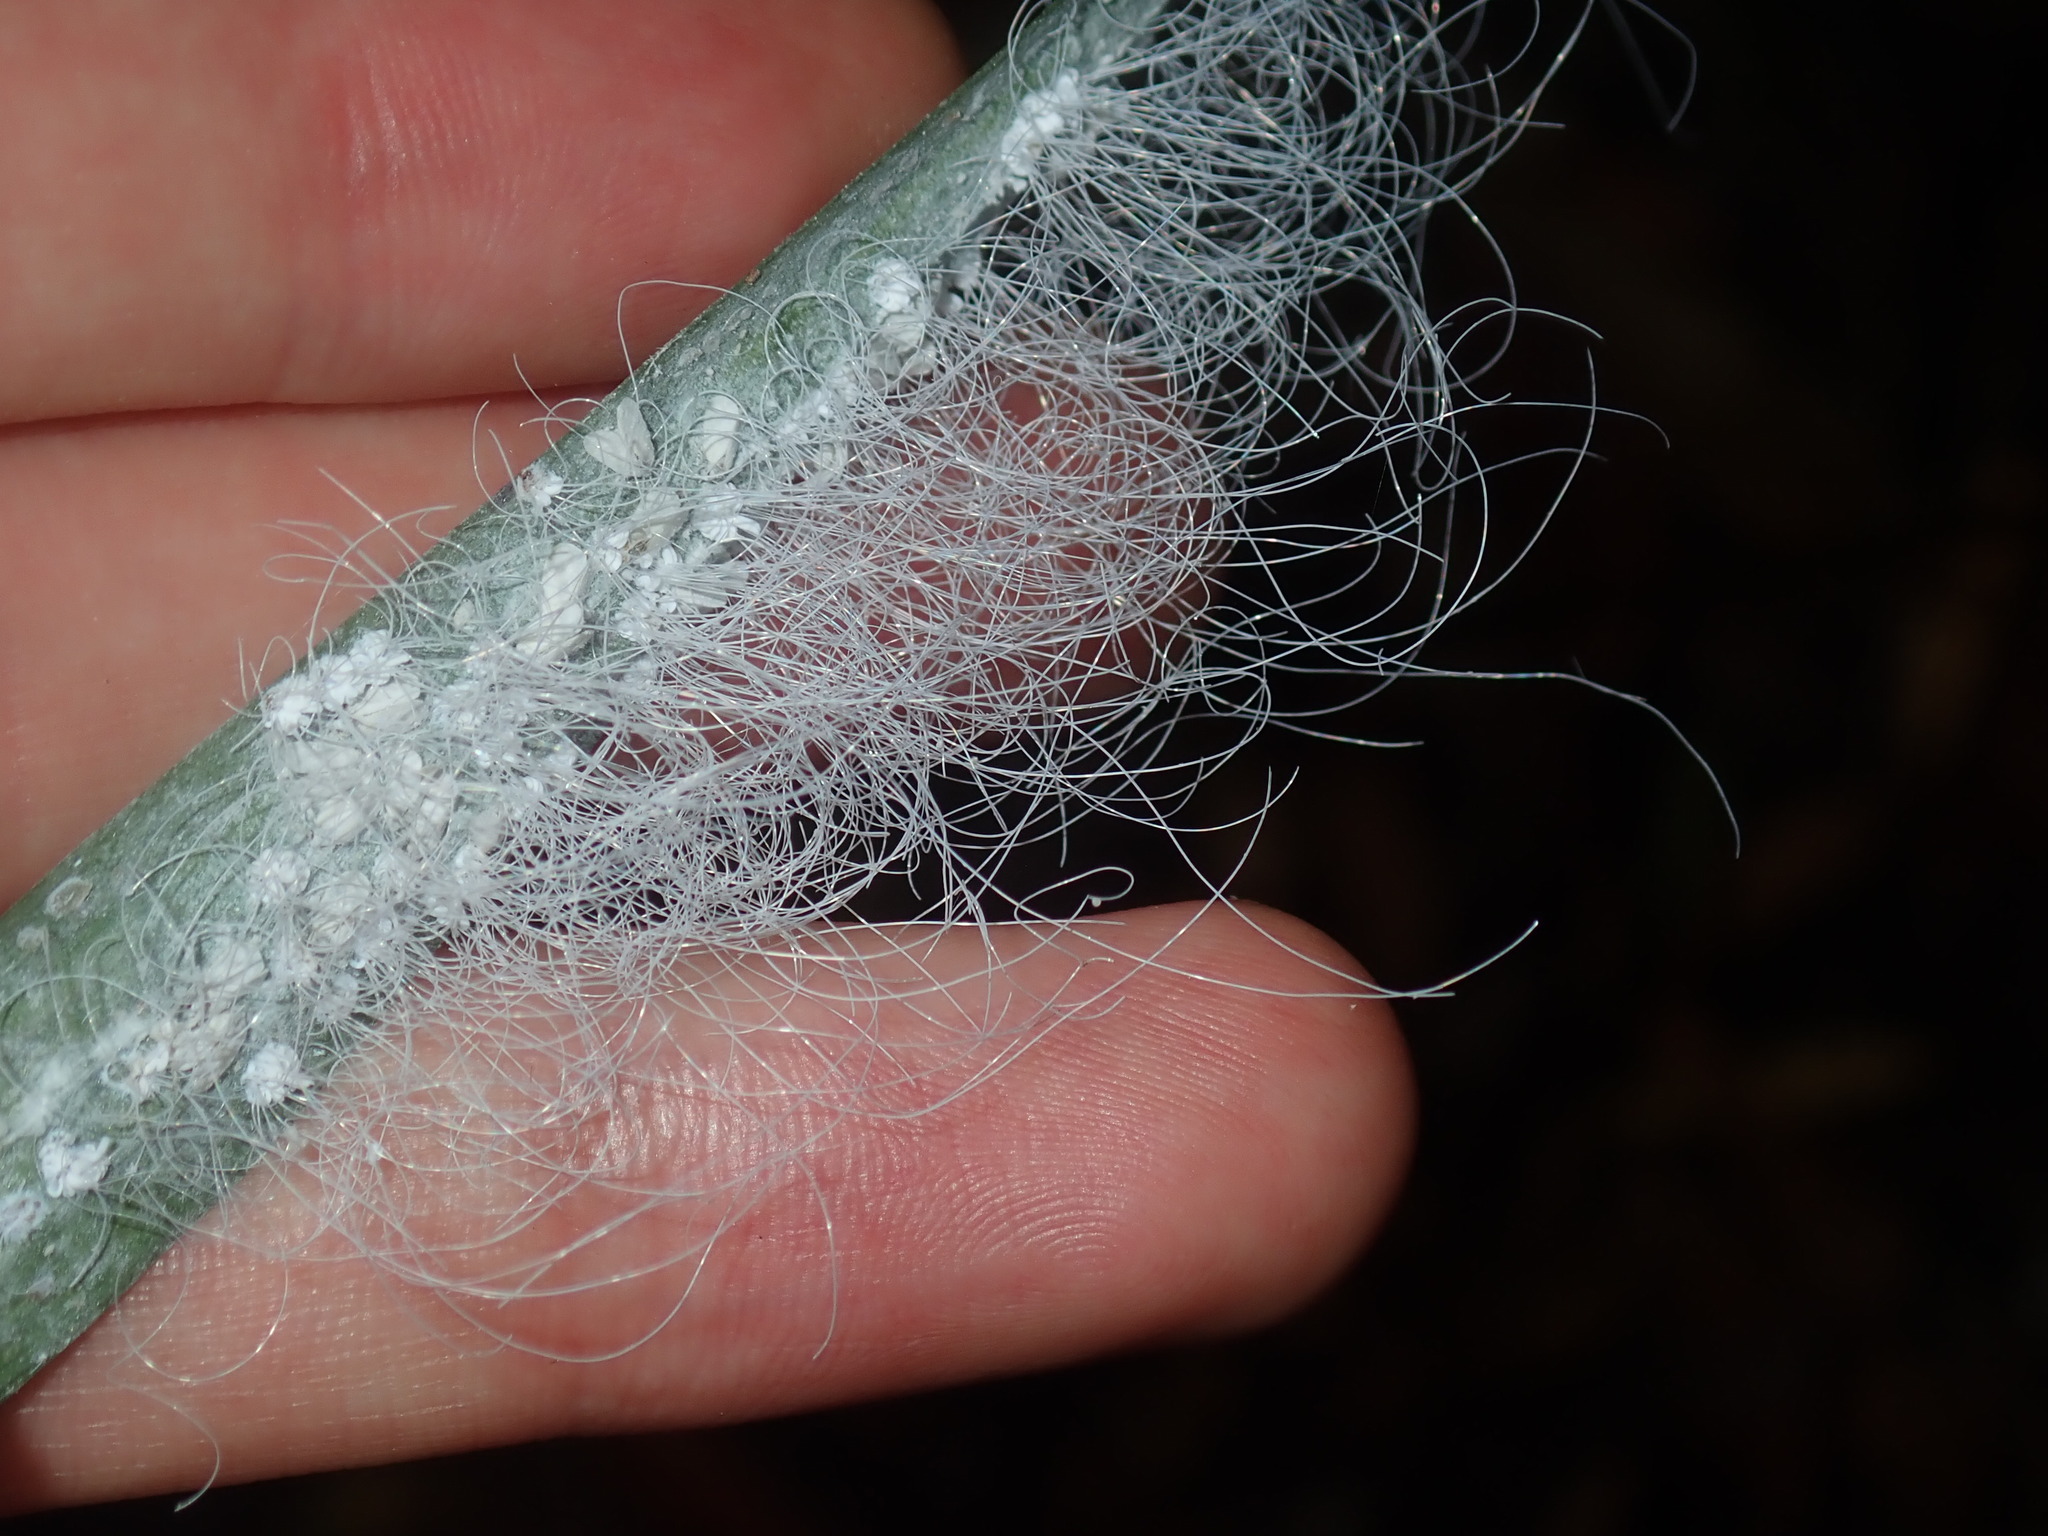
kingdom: Animalia
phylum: Arthropoda
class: Insecta
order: Hemiptera
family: Aleyrodidae
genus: Aleuroctarthrus
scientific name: Aleuroctarthrus
